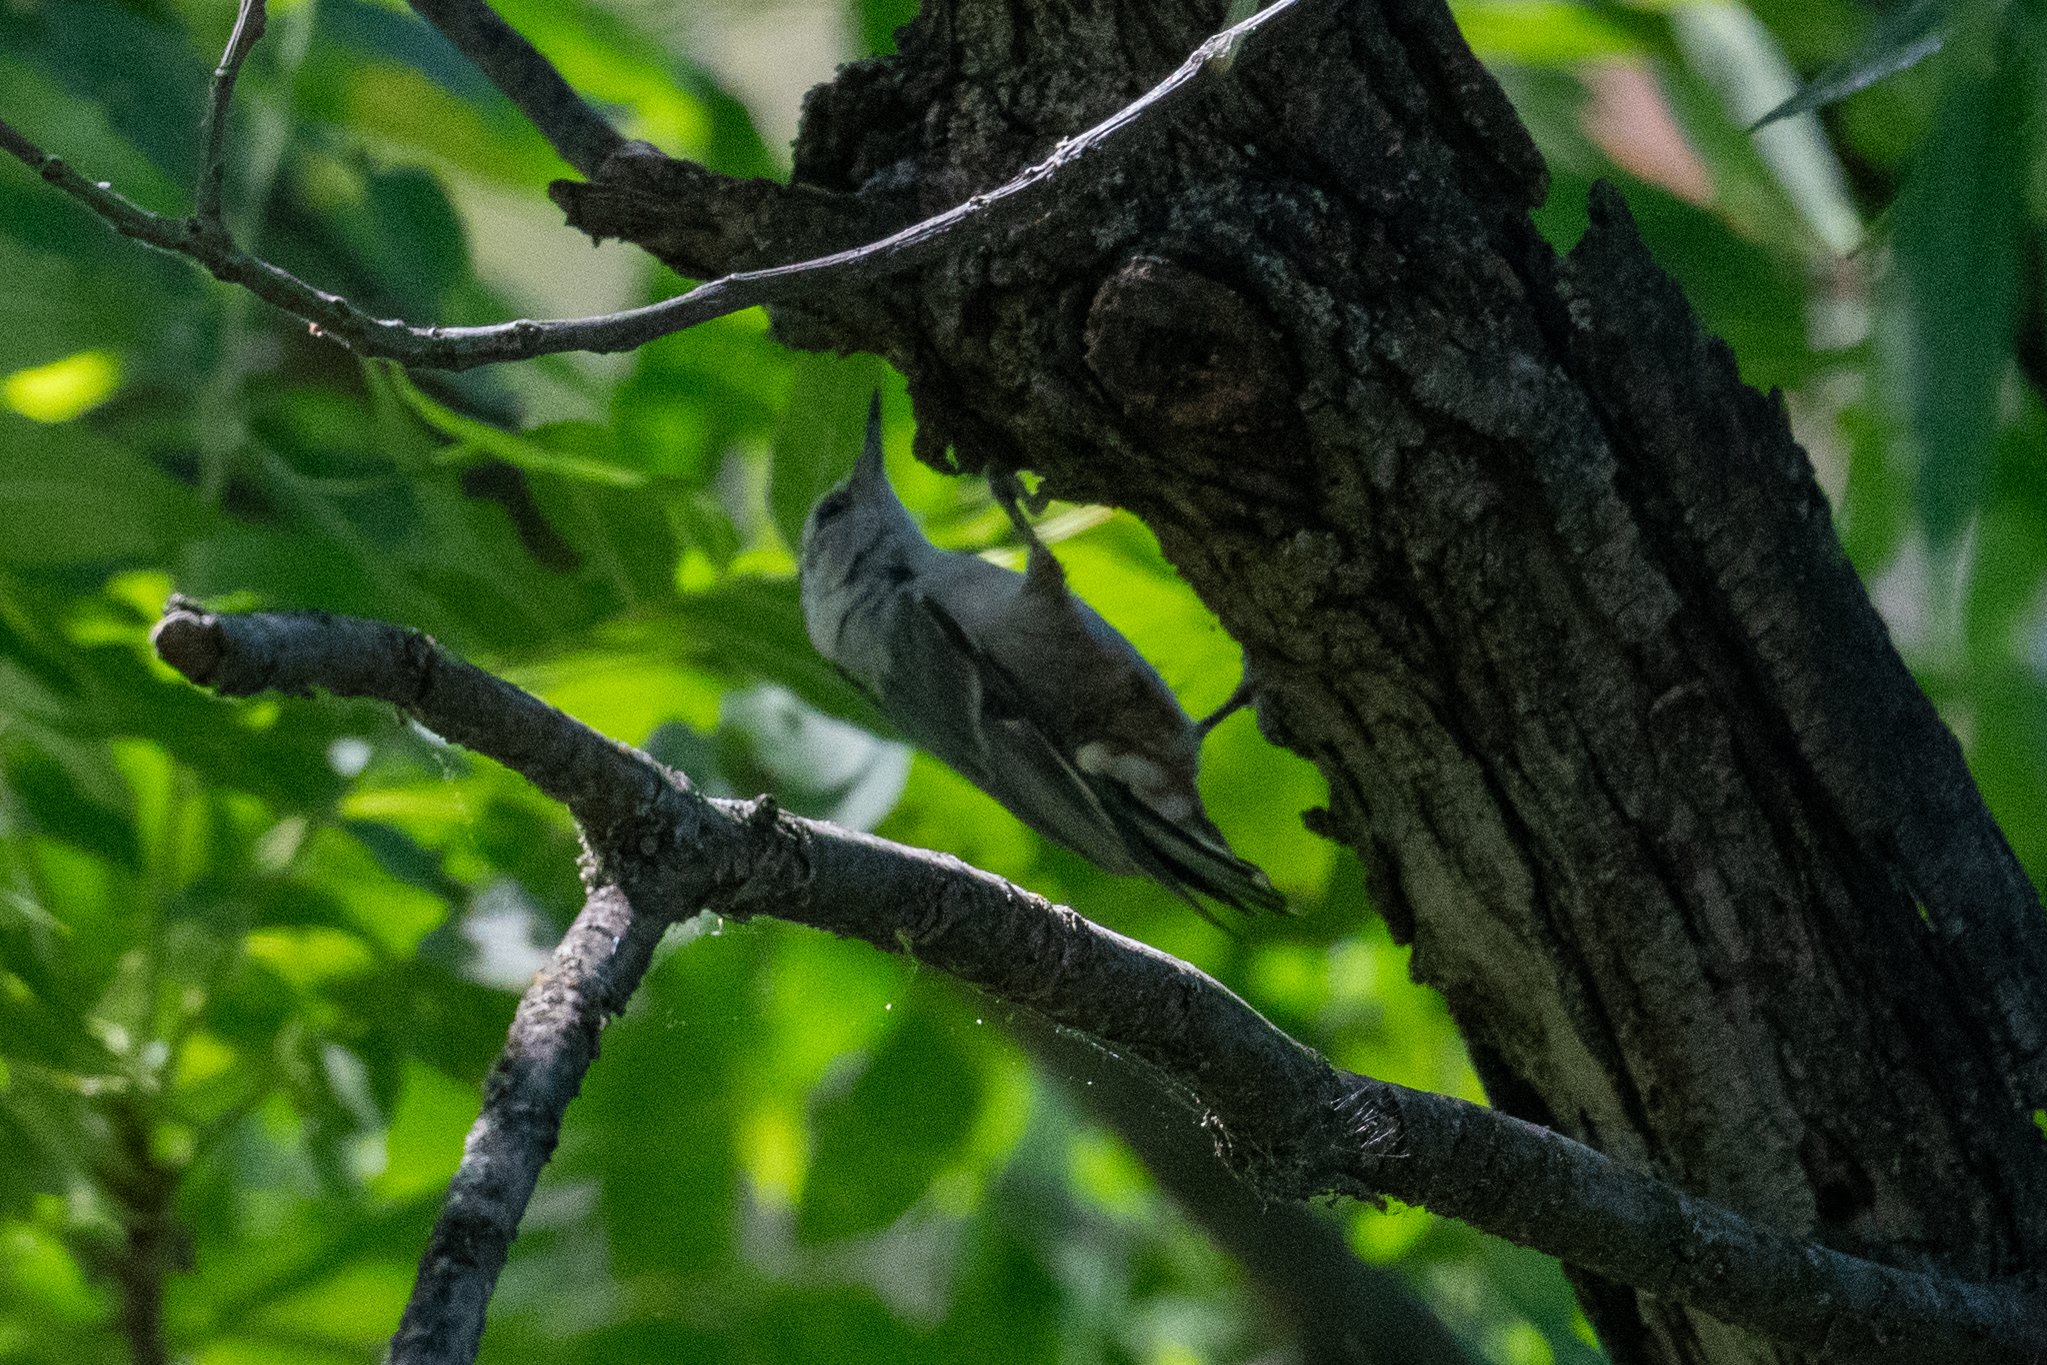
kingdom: Animalia
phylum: Chordata
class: Aves
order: Passeriformes
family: Sittidae
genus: Sitta
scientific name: Sitta carolinensis
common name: White-breasted nuthatch
